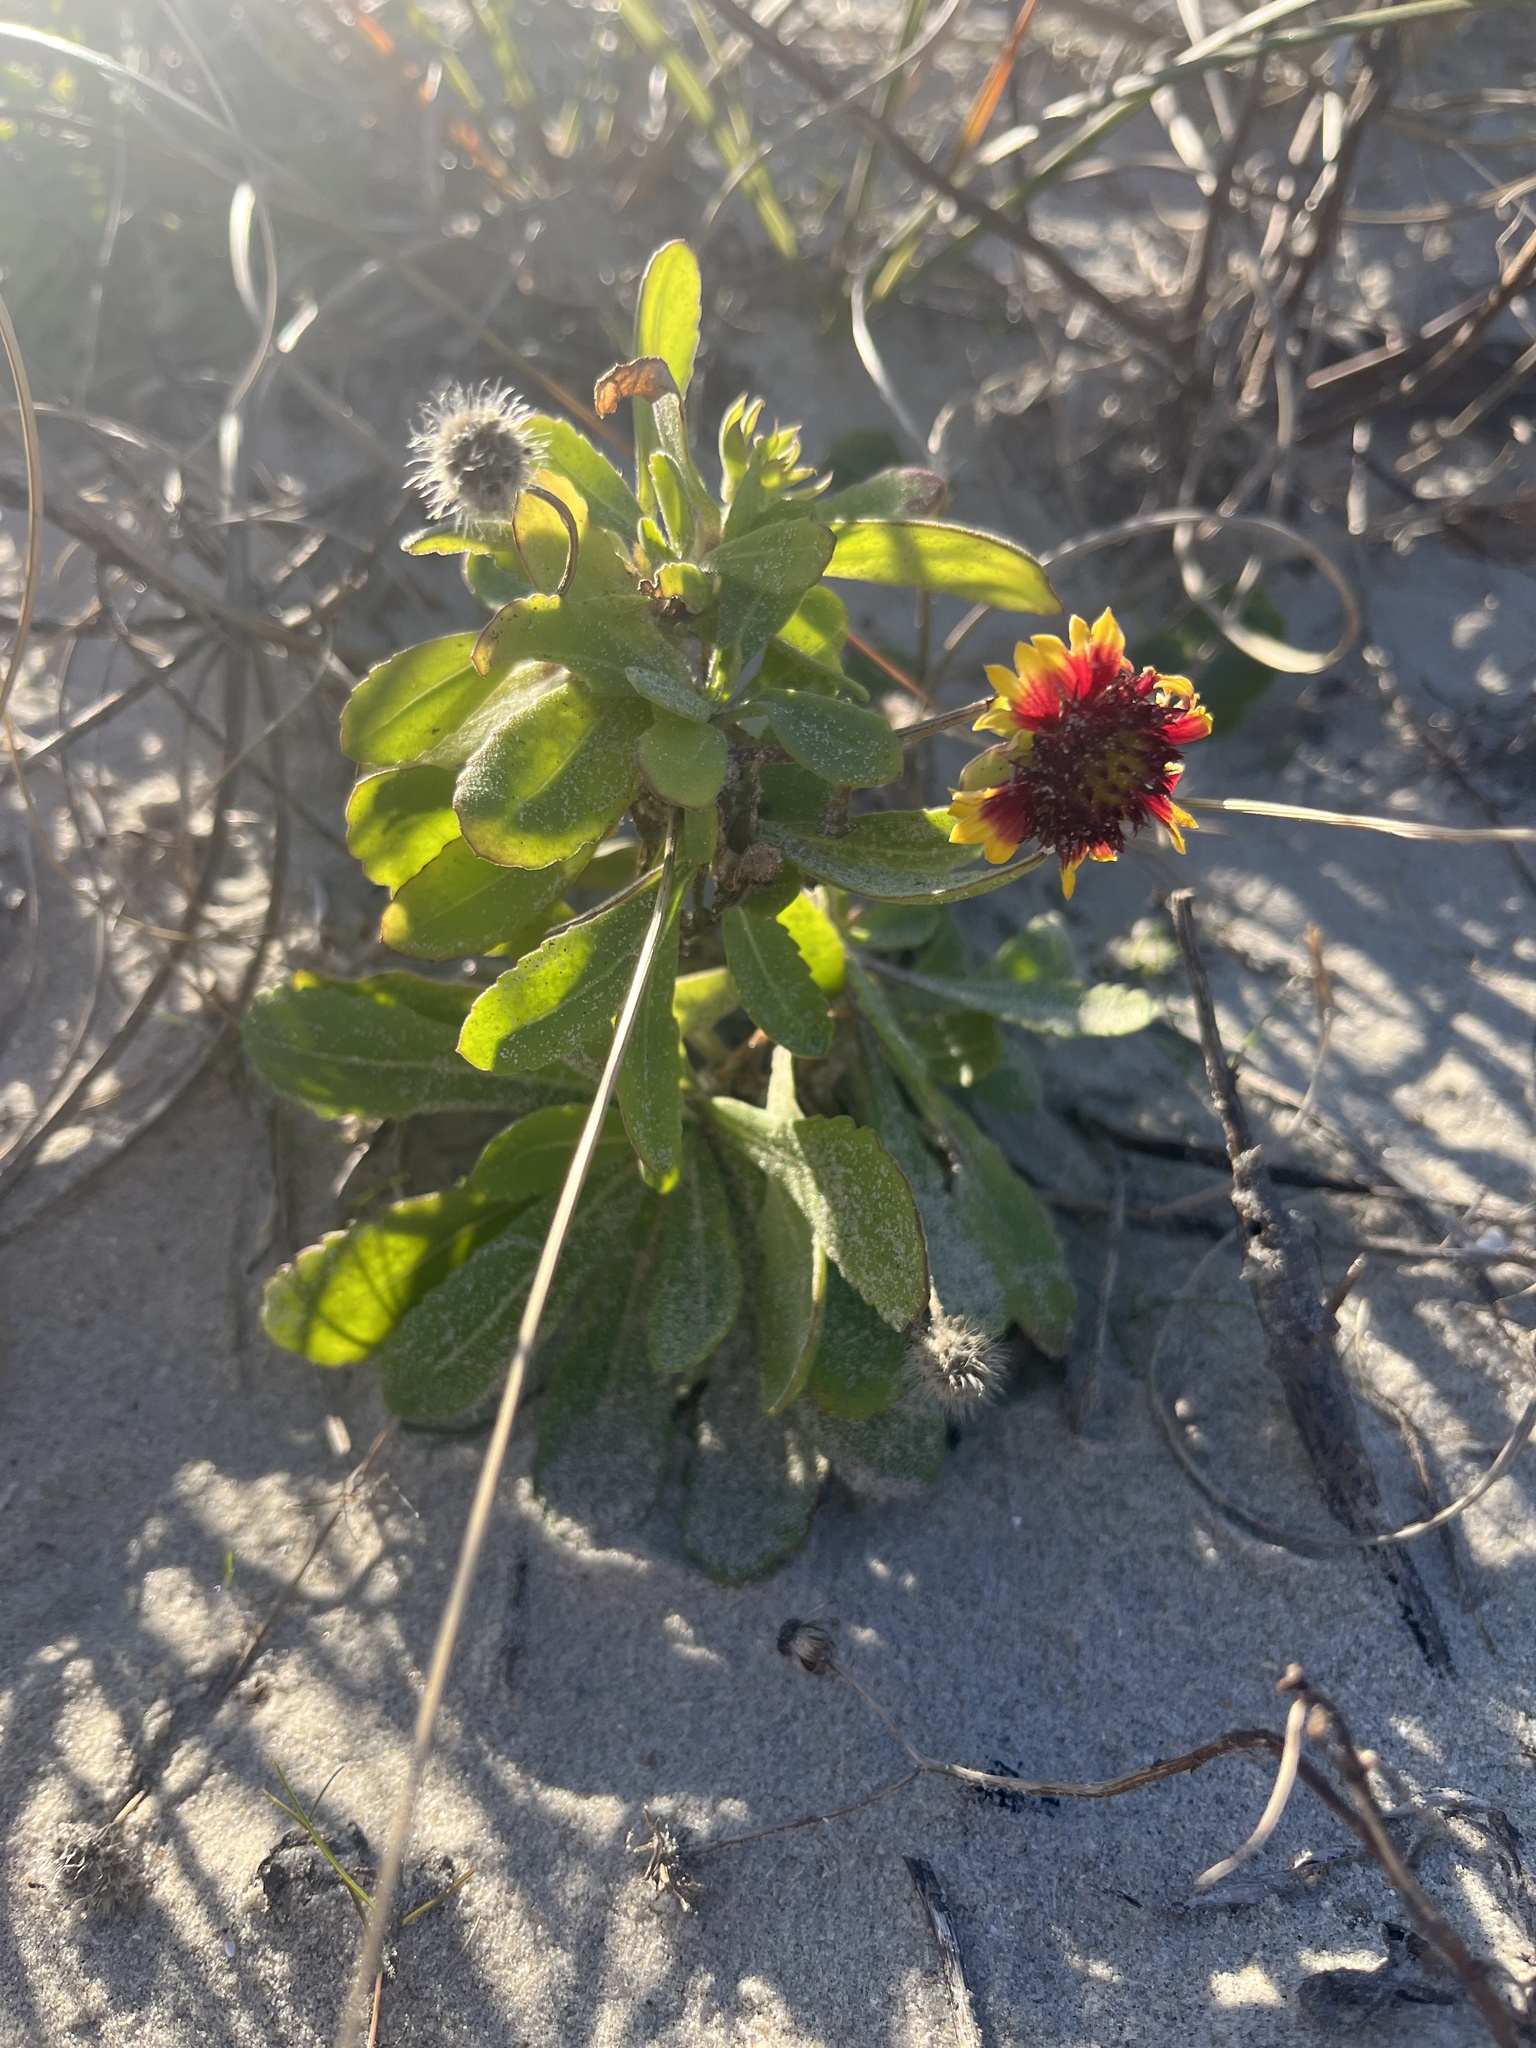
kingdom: Plantae
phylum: Tracheophyta
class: Magnoliopsida
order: Asterales
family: Asteraceae
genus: Gaillardia
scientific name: Gaillardia pulchella
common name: Firewheel
